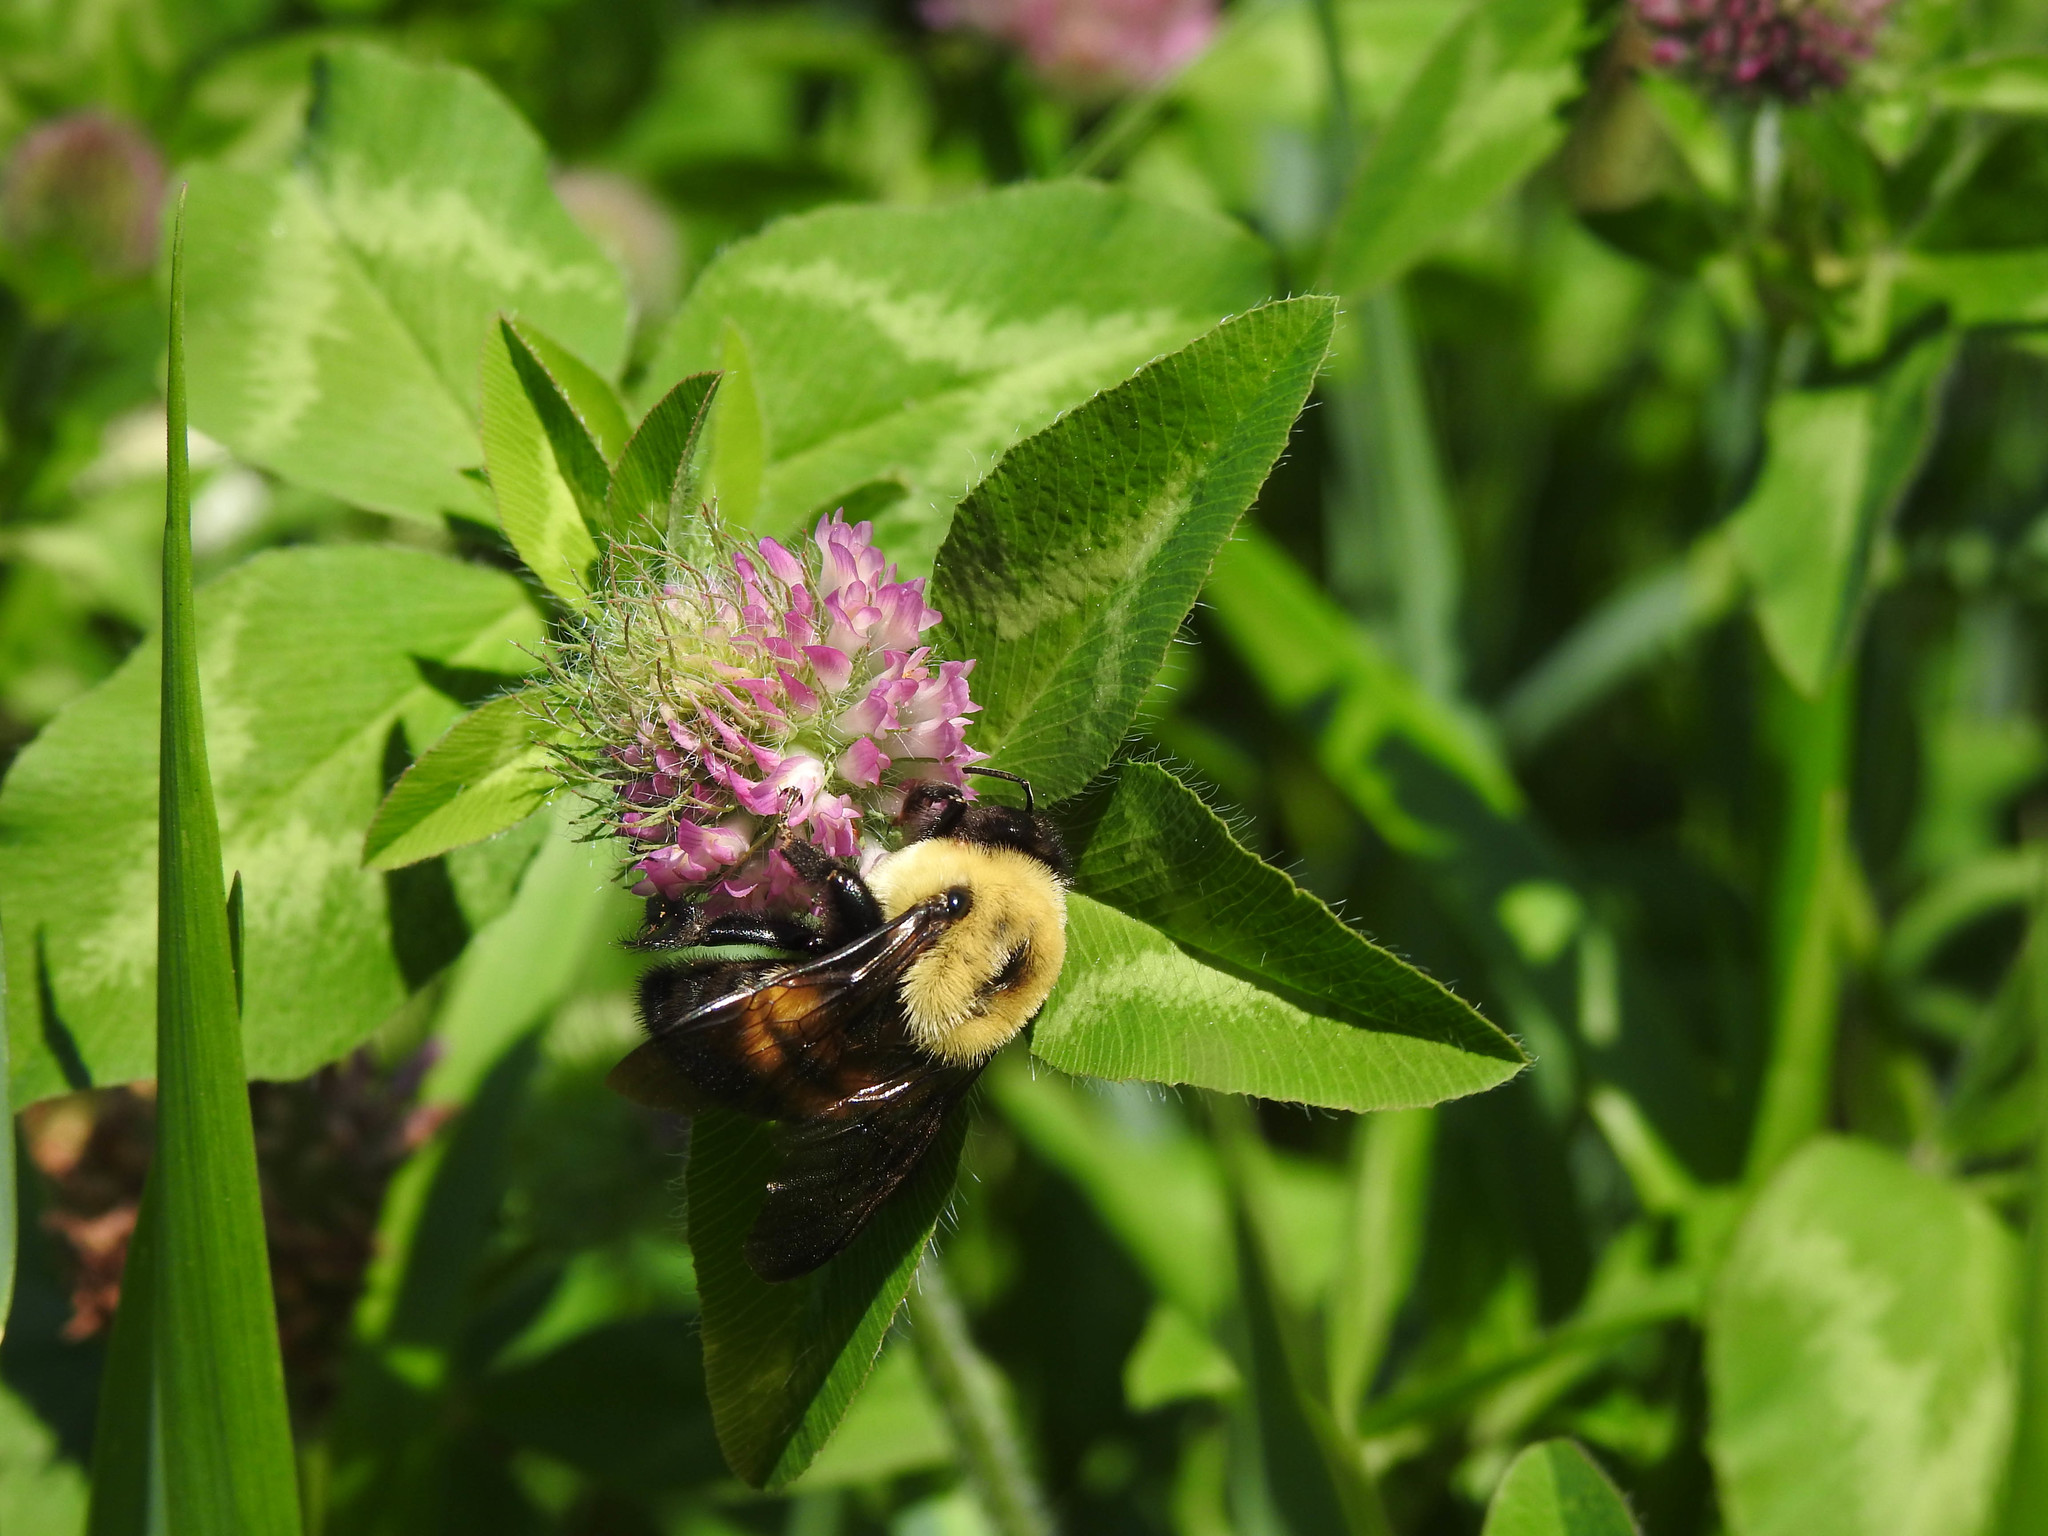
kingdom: Animalia
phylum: Arthropoda
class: Insecta
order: Hymenoptera
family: Apidae
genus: Bombus
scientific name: Bombus griseocollis
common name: Brown-belted bumble bee
